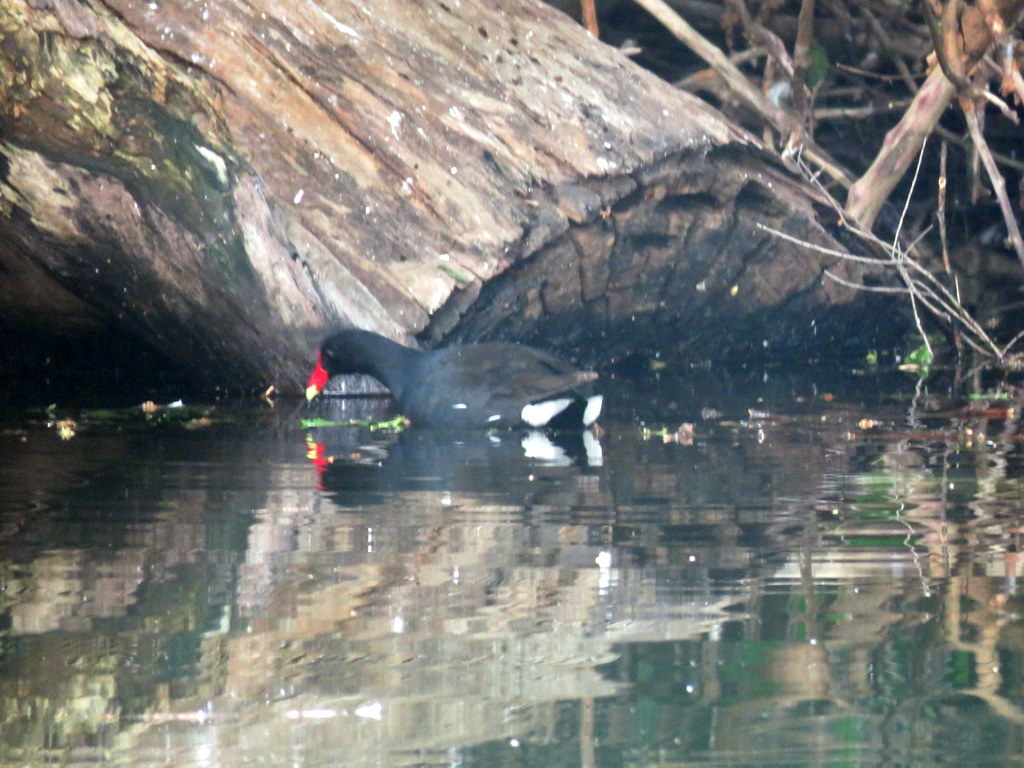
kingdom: Animalia
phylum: Chordata
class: Aves
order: Gruiformes
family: Rallidae
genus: Gallinula
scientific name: Gallinula chloropus
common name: Common moorhen
